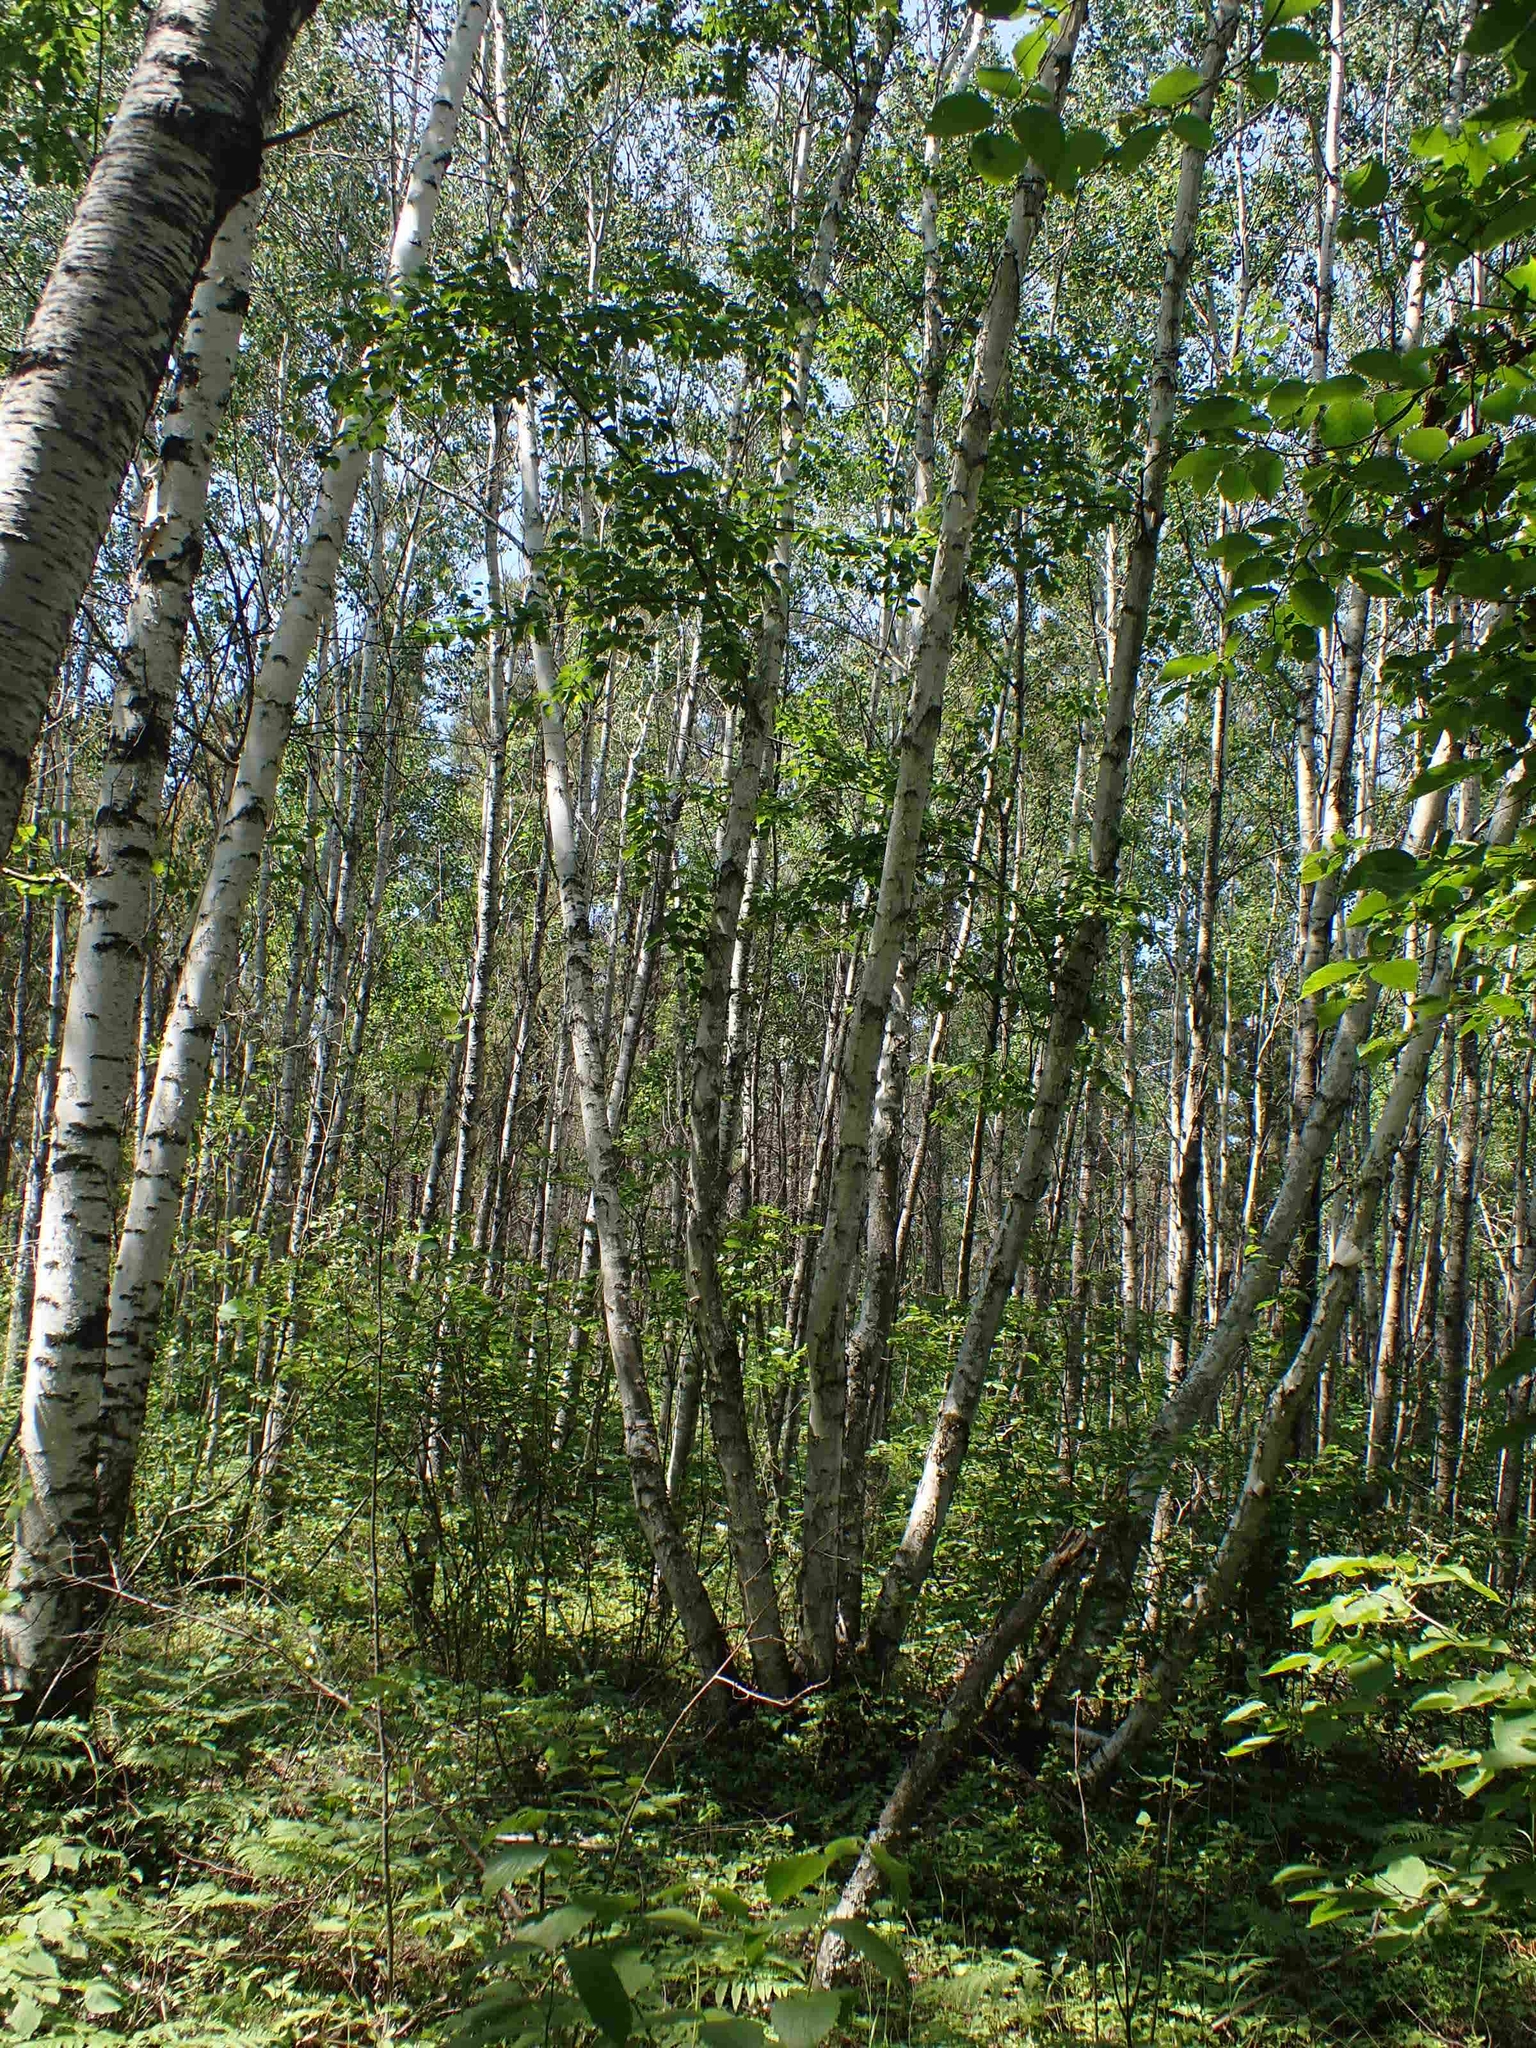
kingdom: Plantae
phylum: Tracheophyta
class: Magnoliopsida
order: Fagales
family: Betulaceae
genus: Betula
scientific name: Betula papyrifera
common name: Paper birch
